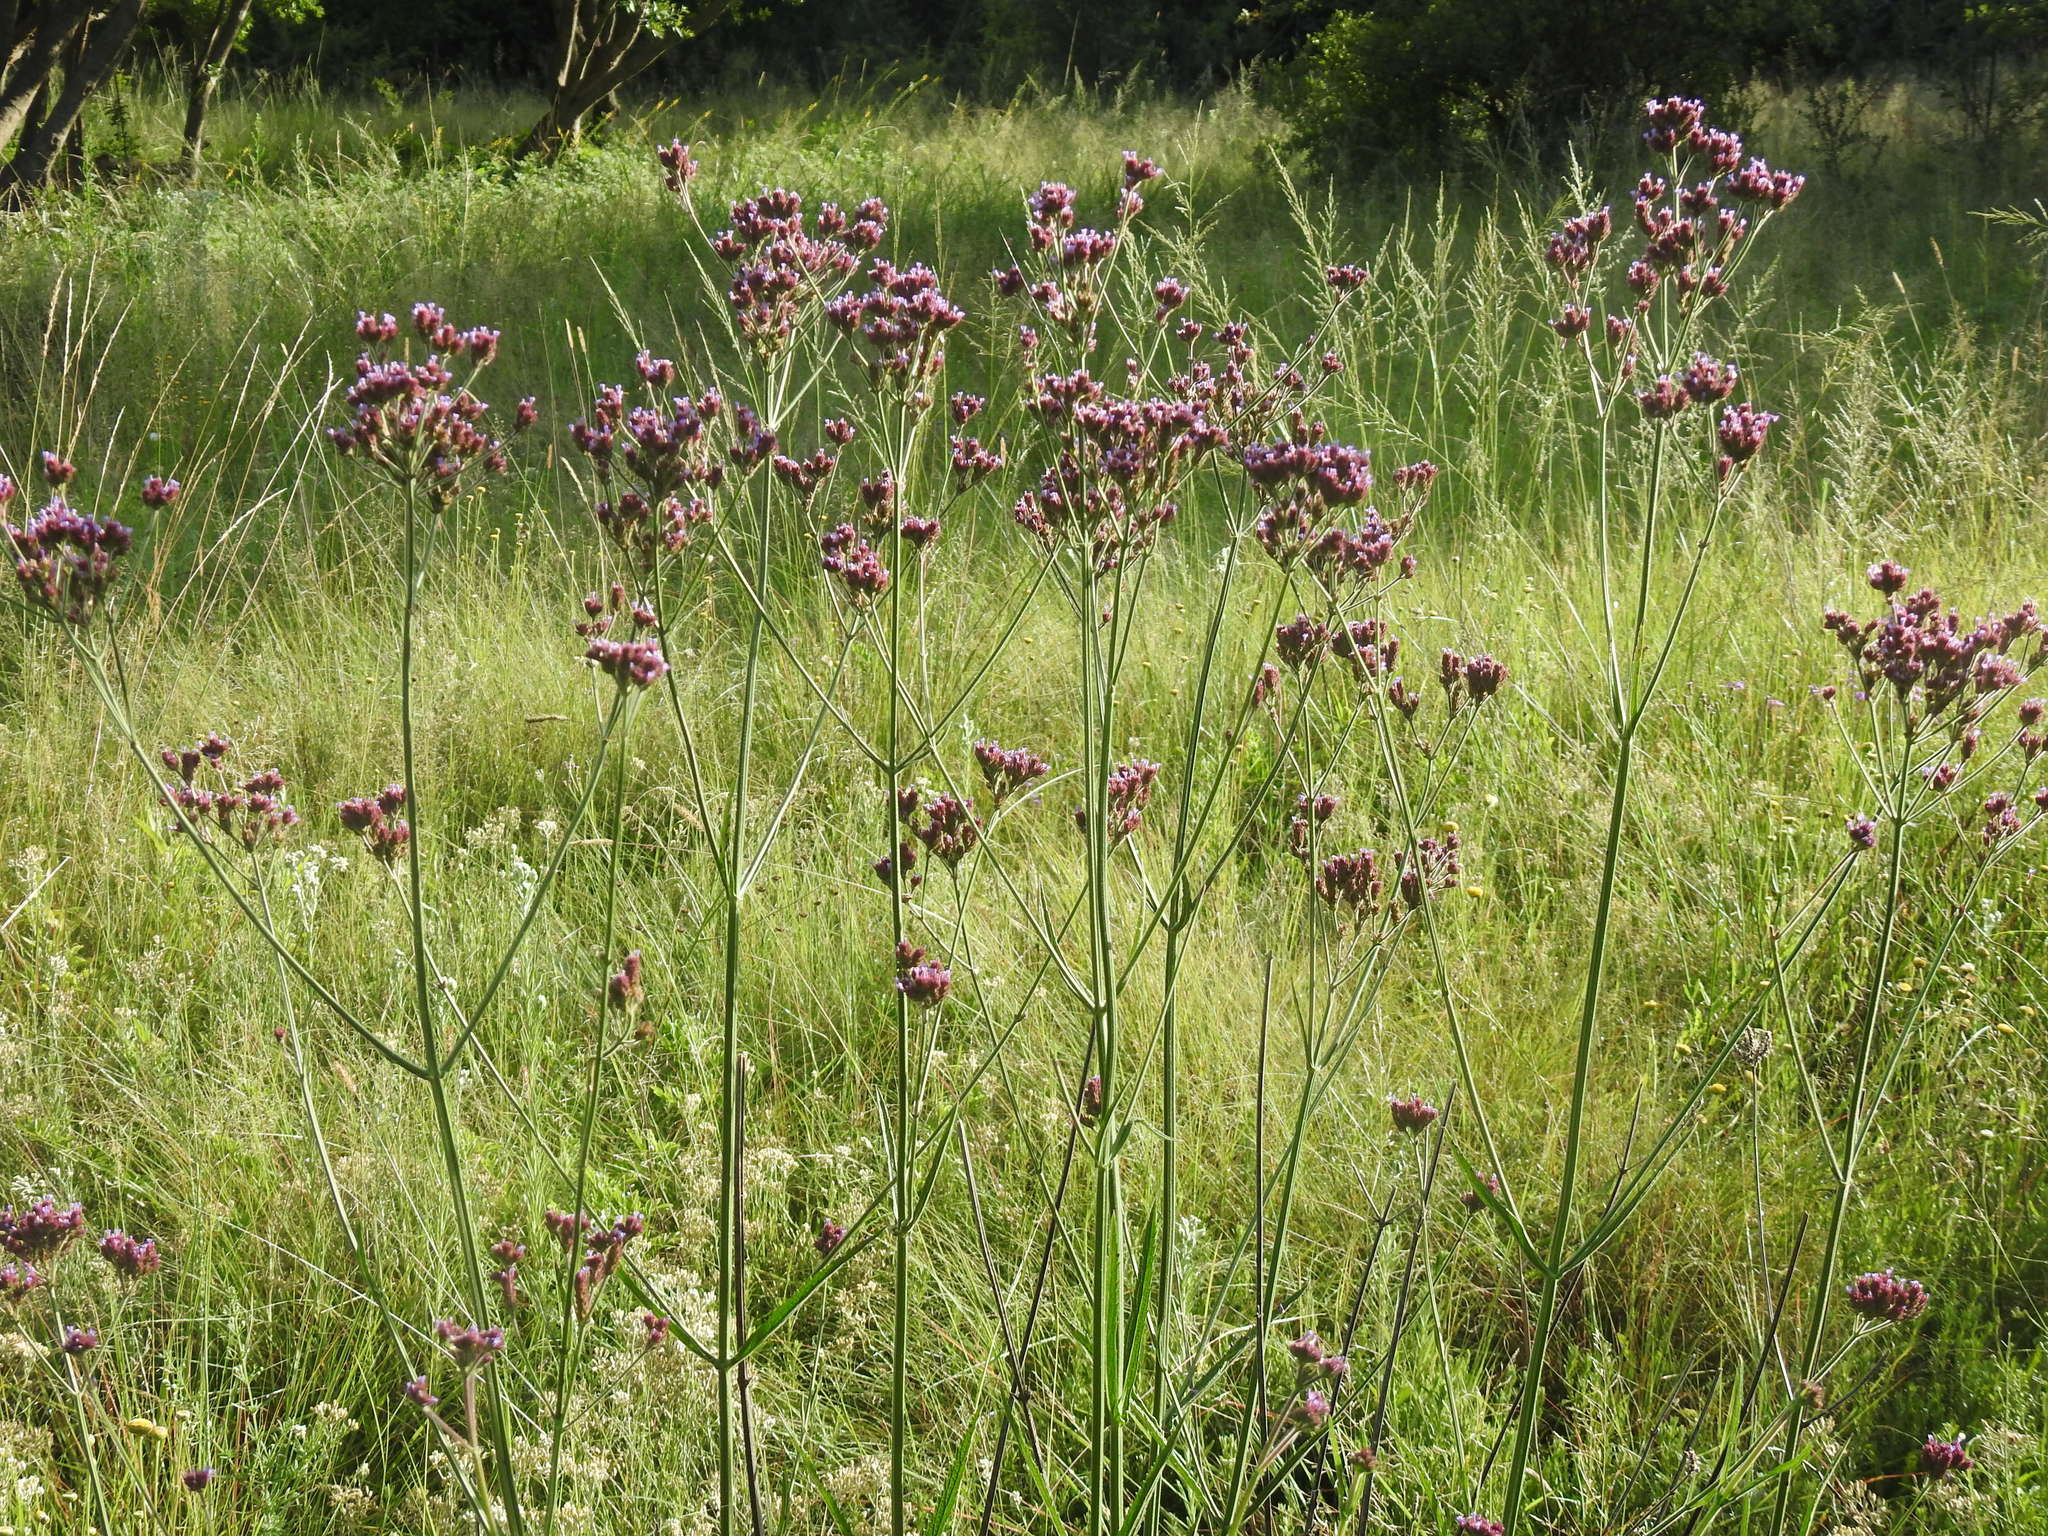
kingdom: Plantae
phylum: Tracheophyta
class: Magnoliopsida
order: Lamiales
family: Verbenaceae
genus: Verbena
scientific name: Verbena bonariensis
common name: Purpletop vervain
